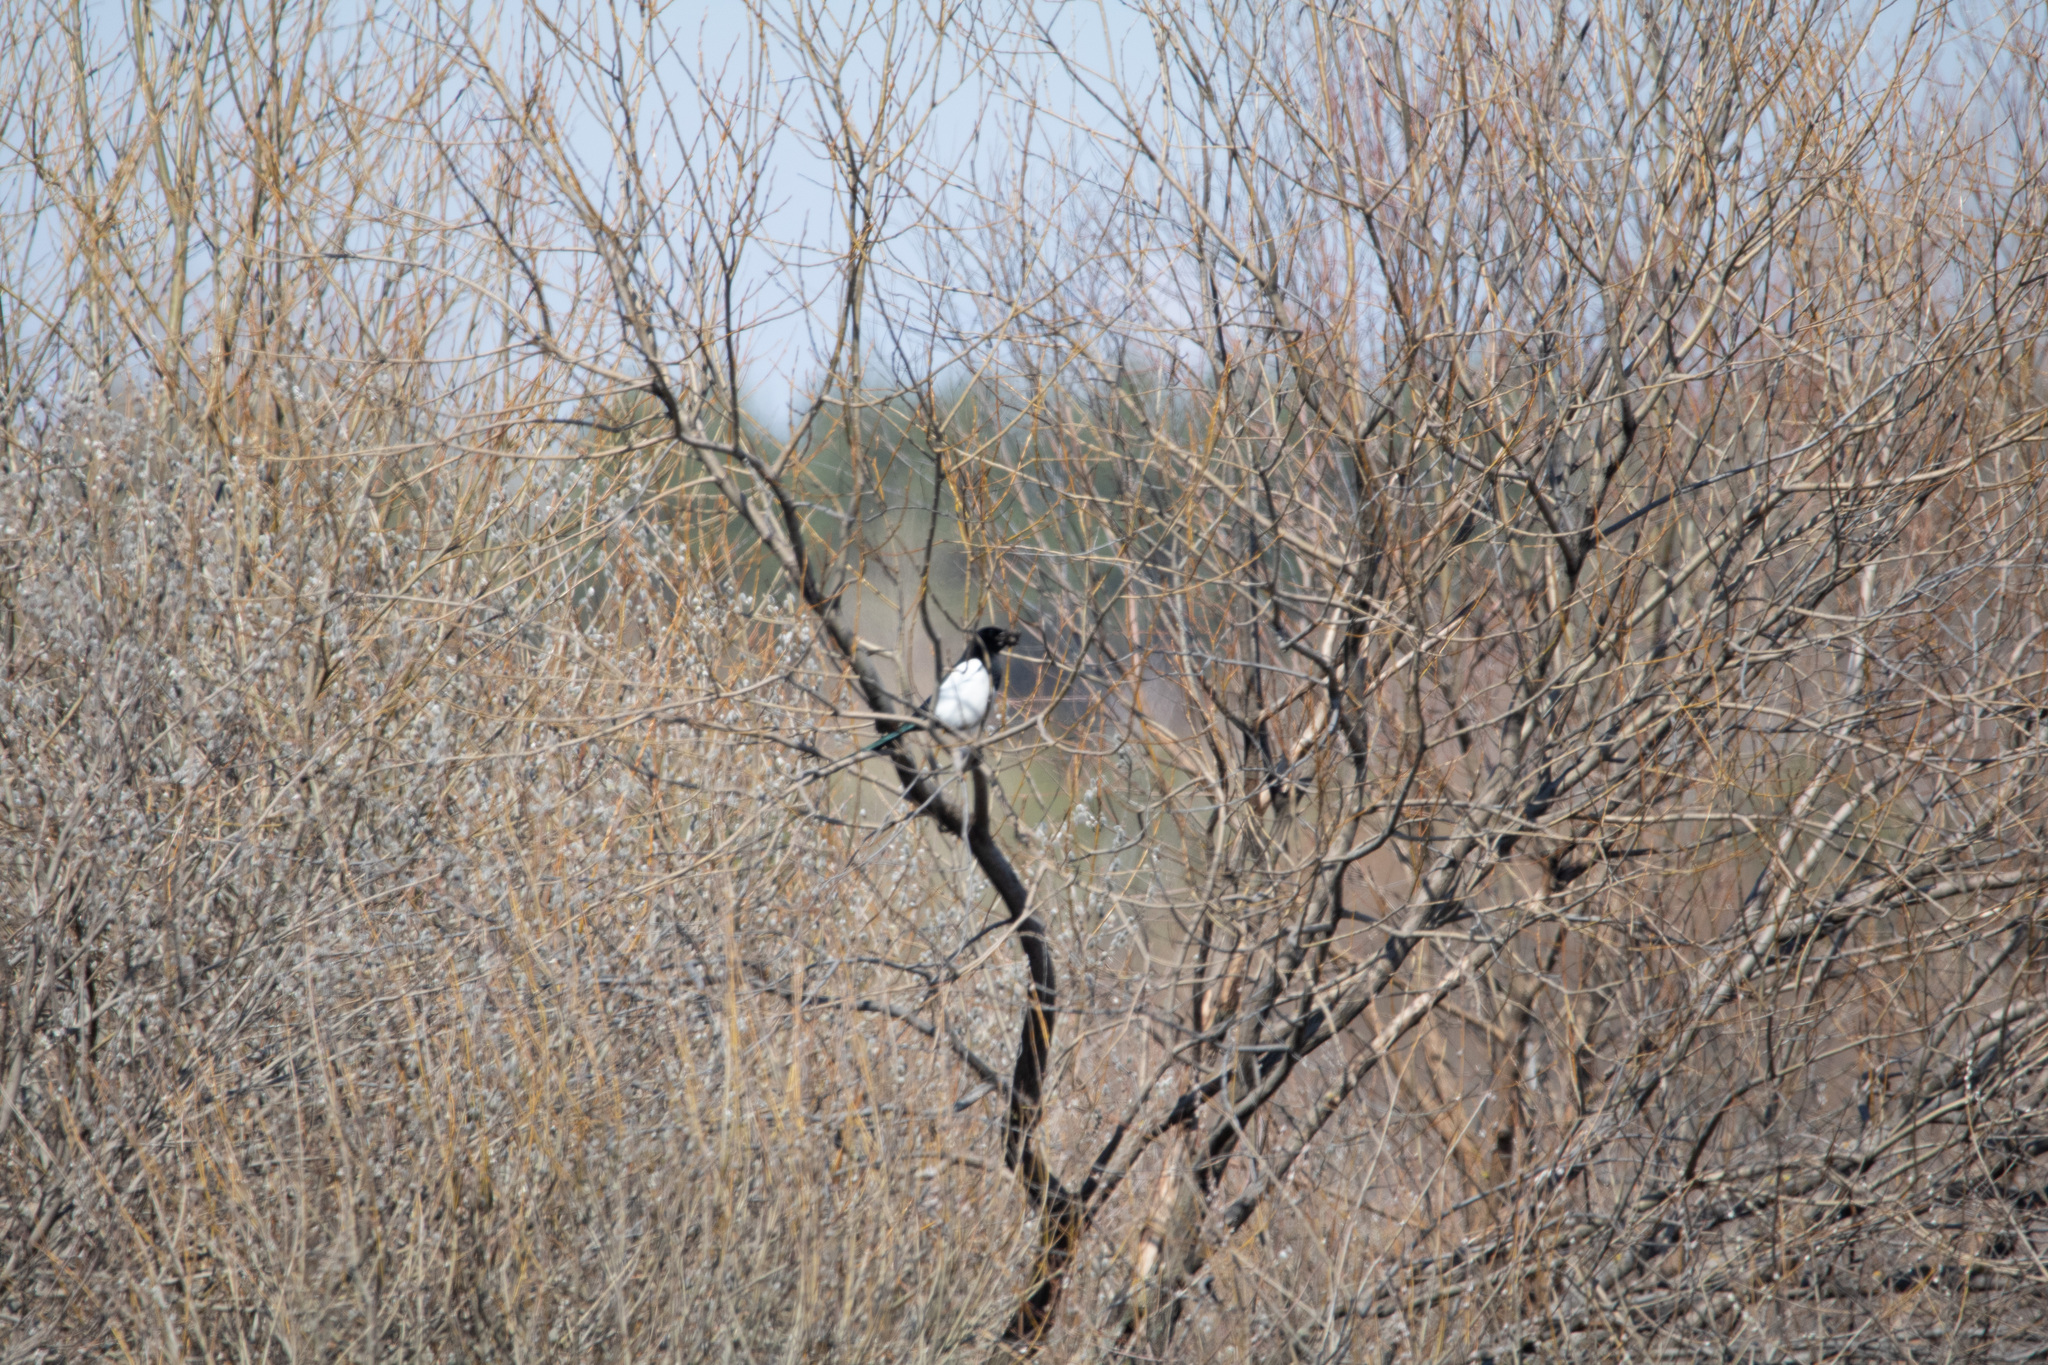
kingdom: Animalia
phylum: Chordata
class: Aves
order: Passeriformes
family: Corvidae
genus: Pica
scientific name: Pica pica
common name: Eurasian magpie
